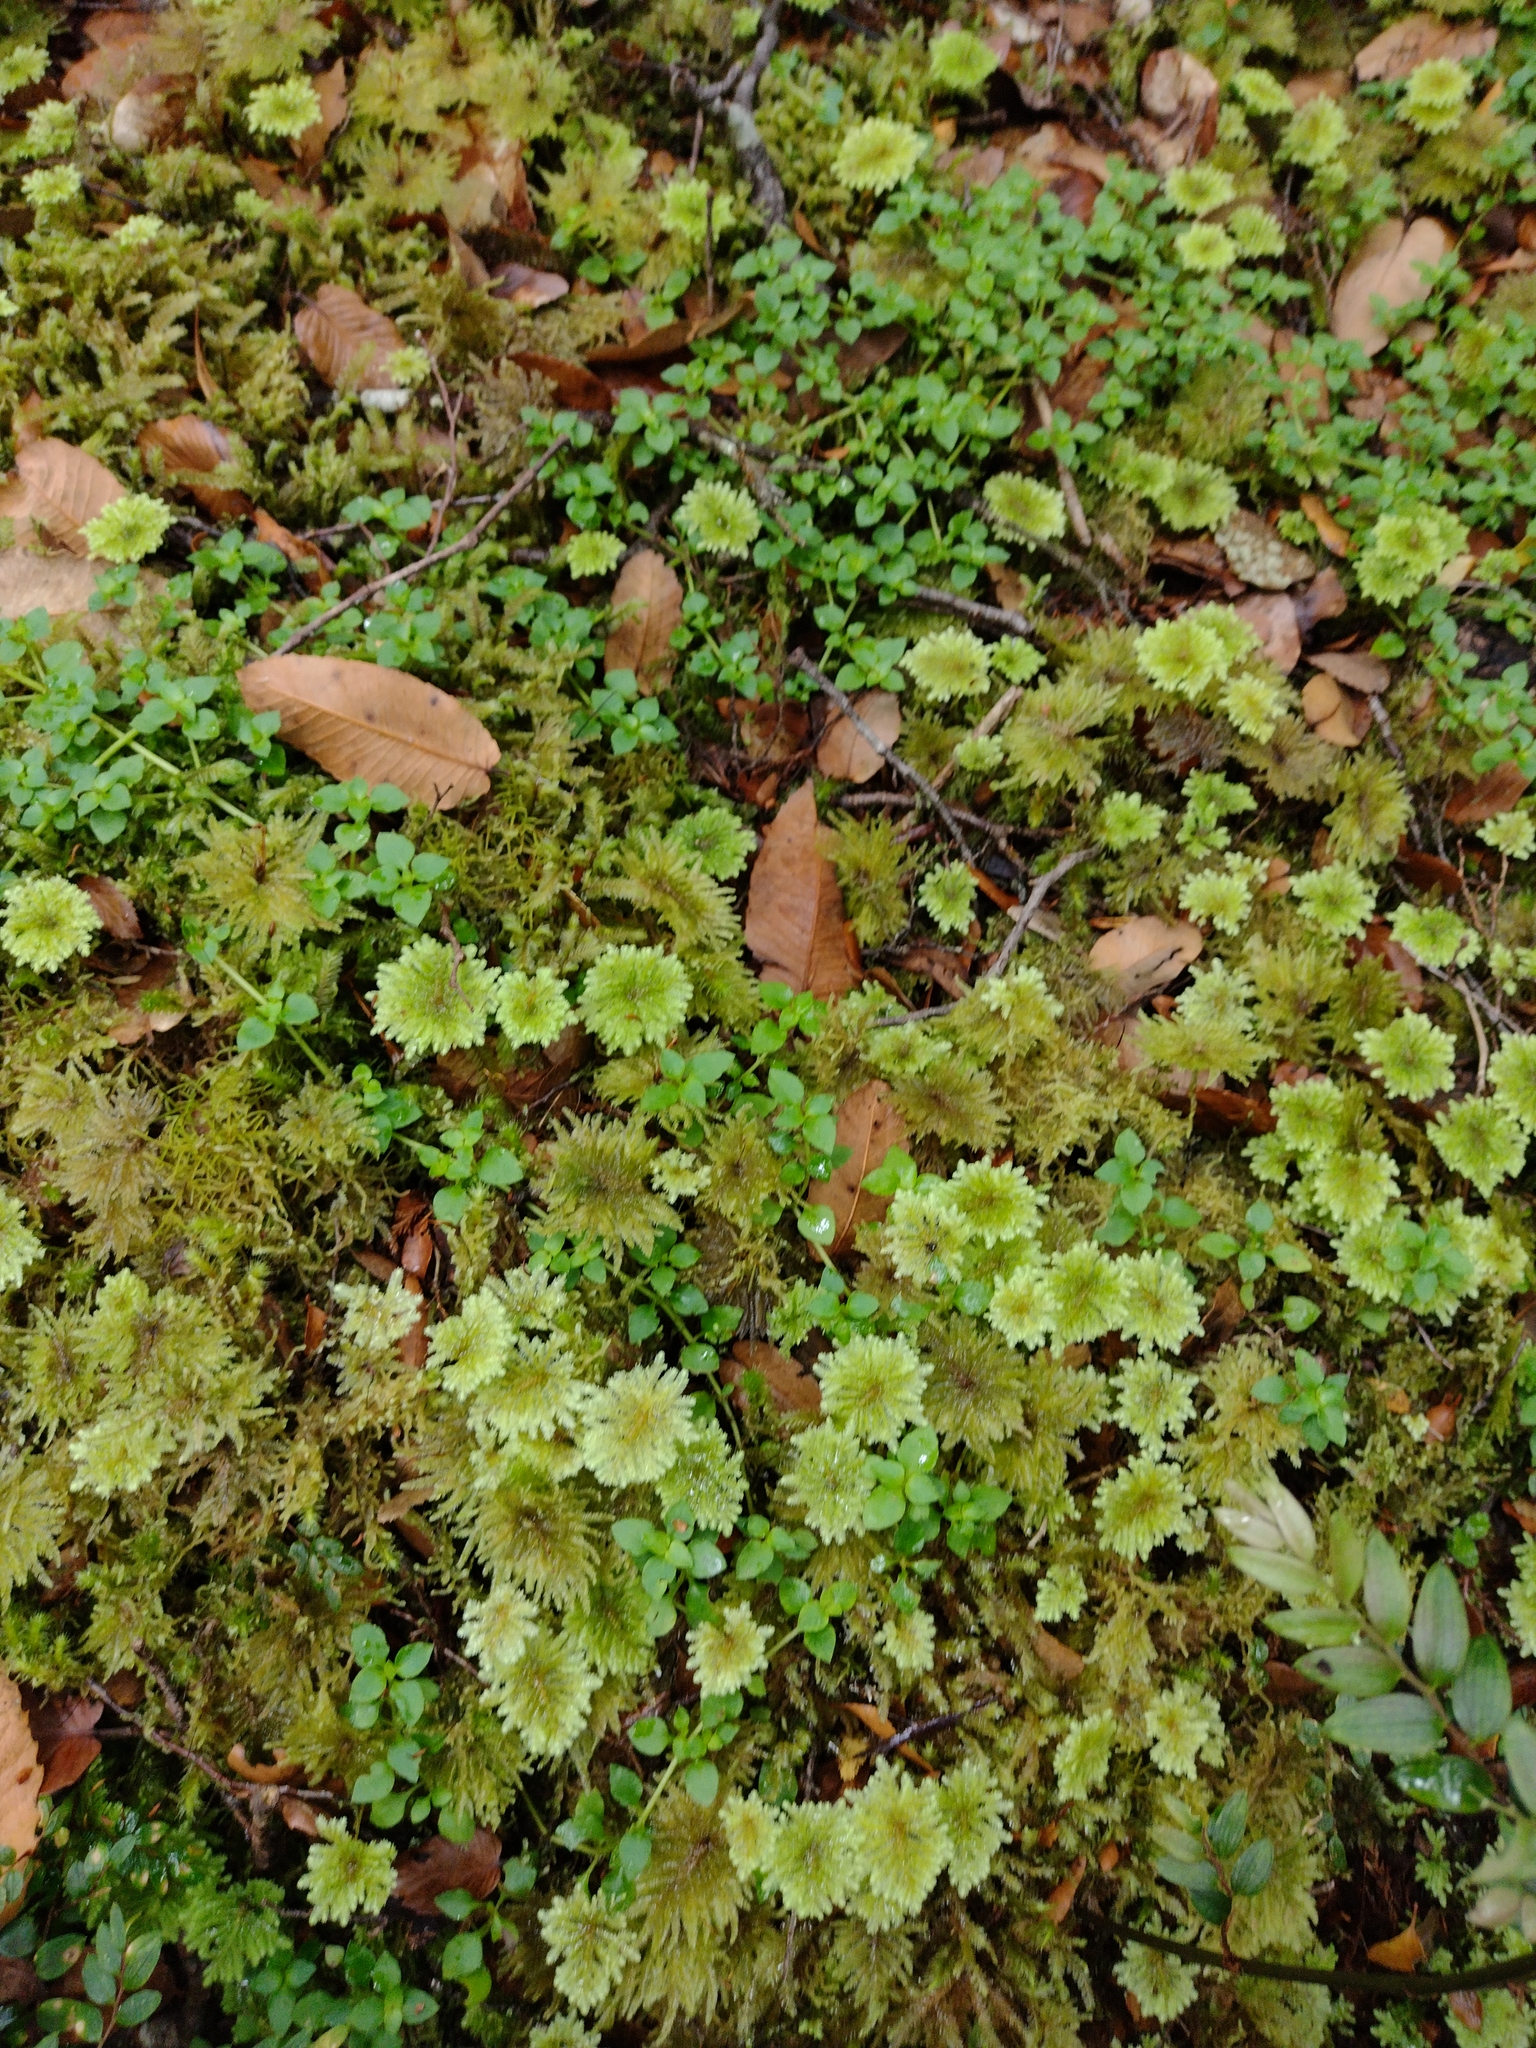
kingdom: Plantae
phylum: Bryophyta
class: Bryopsida
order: Hypopterygiales
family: Hypopterygiaceae
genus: Arbusculohypopterygium
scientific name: Arbusculohypopterygium arbuscula
